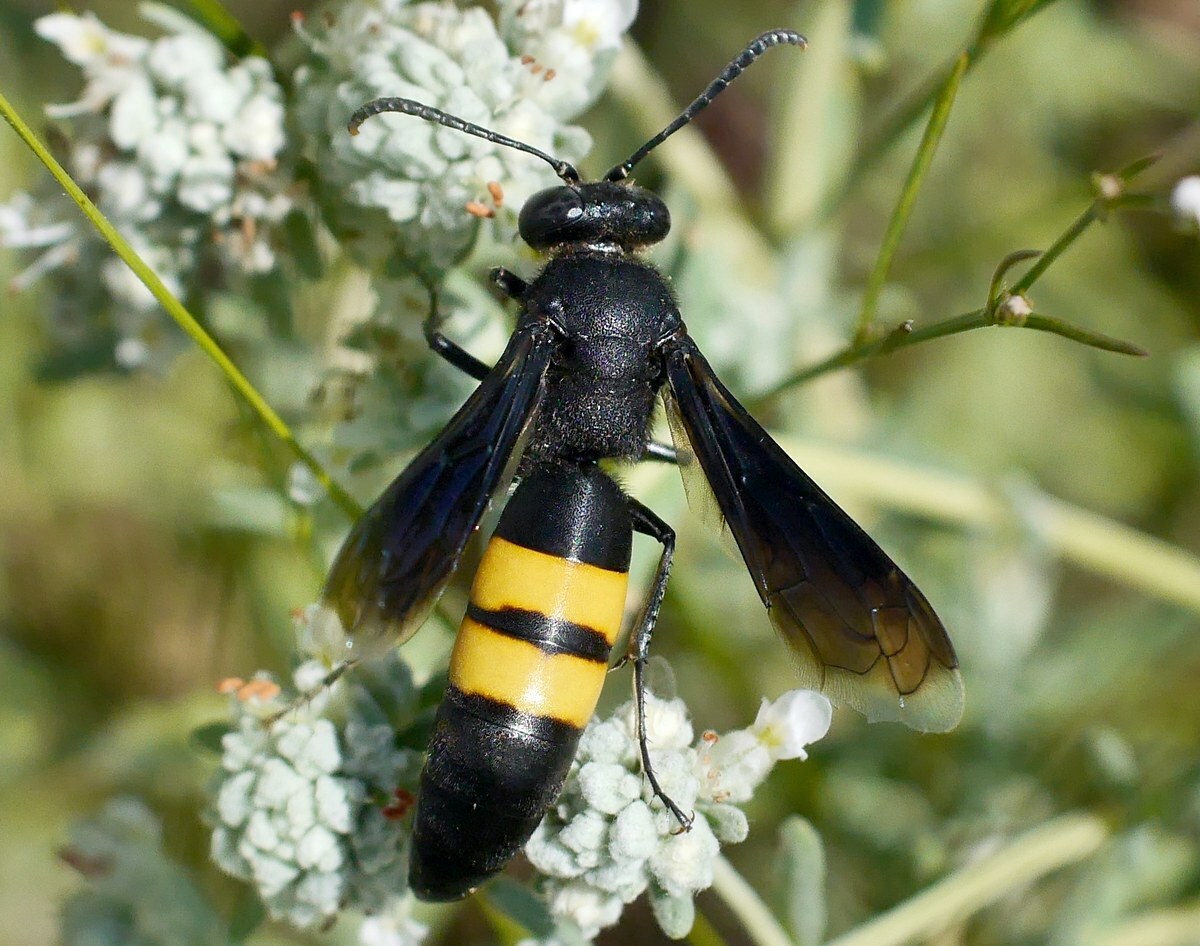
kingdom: Animalia
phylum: Arthropoda
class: Insecta
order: Hymenoptera
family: Crabronidae
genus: Stizoides
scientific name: Stizoides tridentatus
